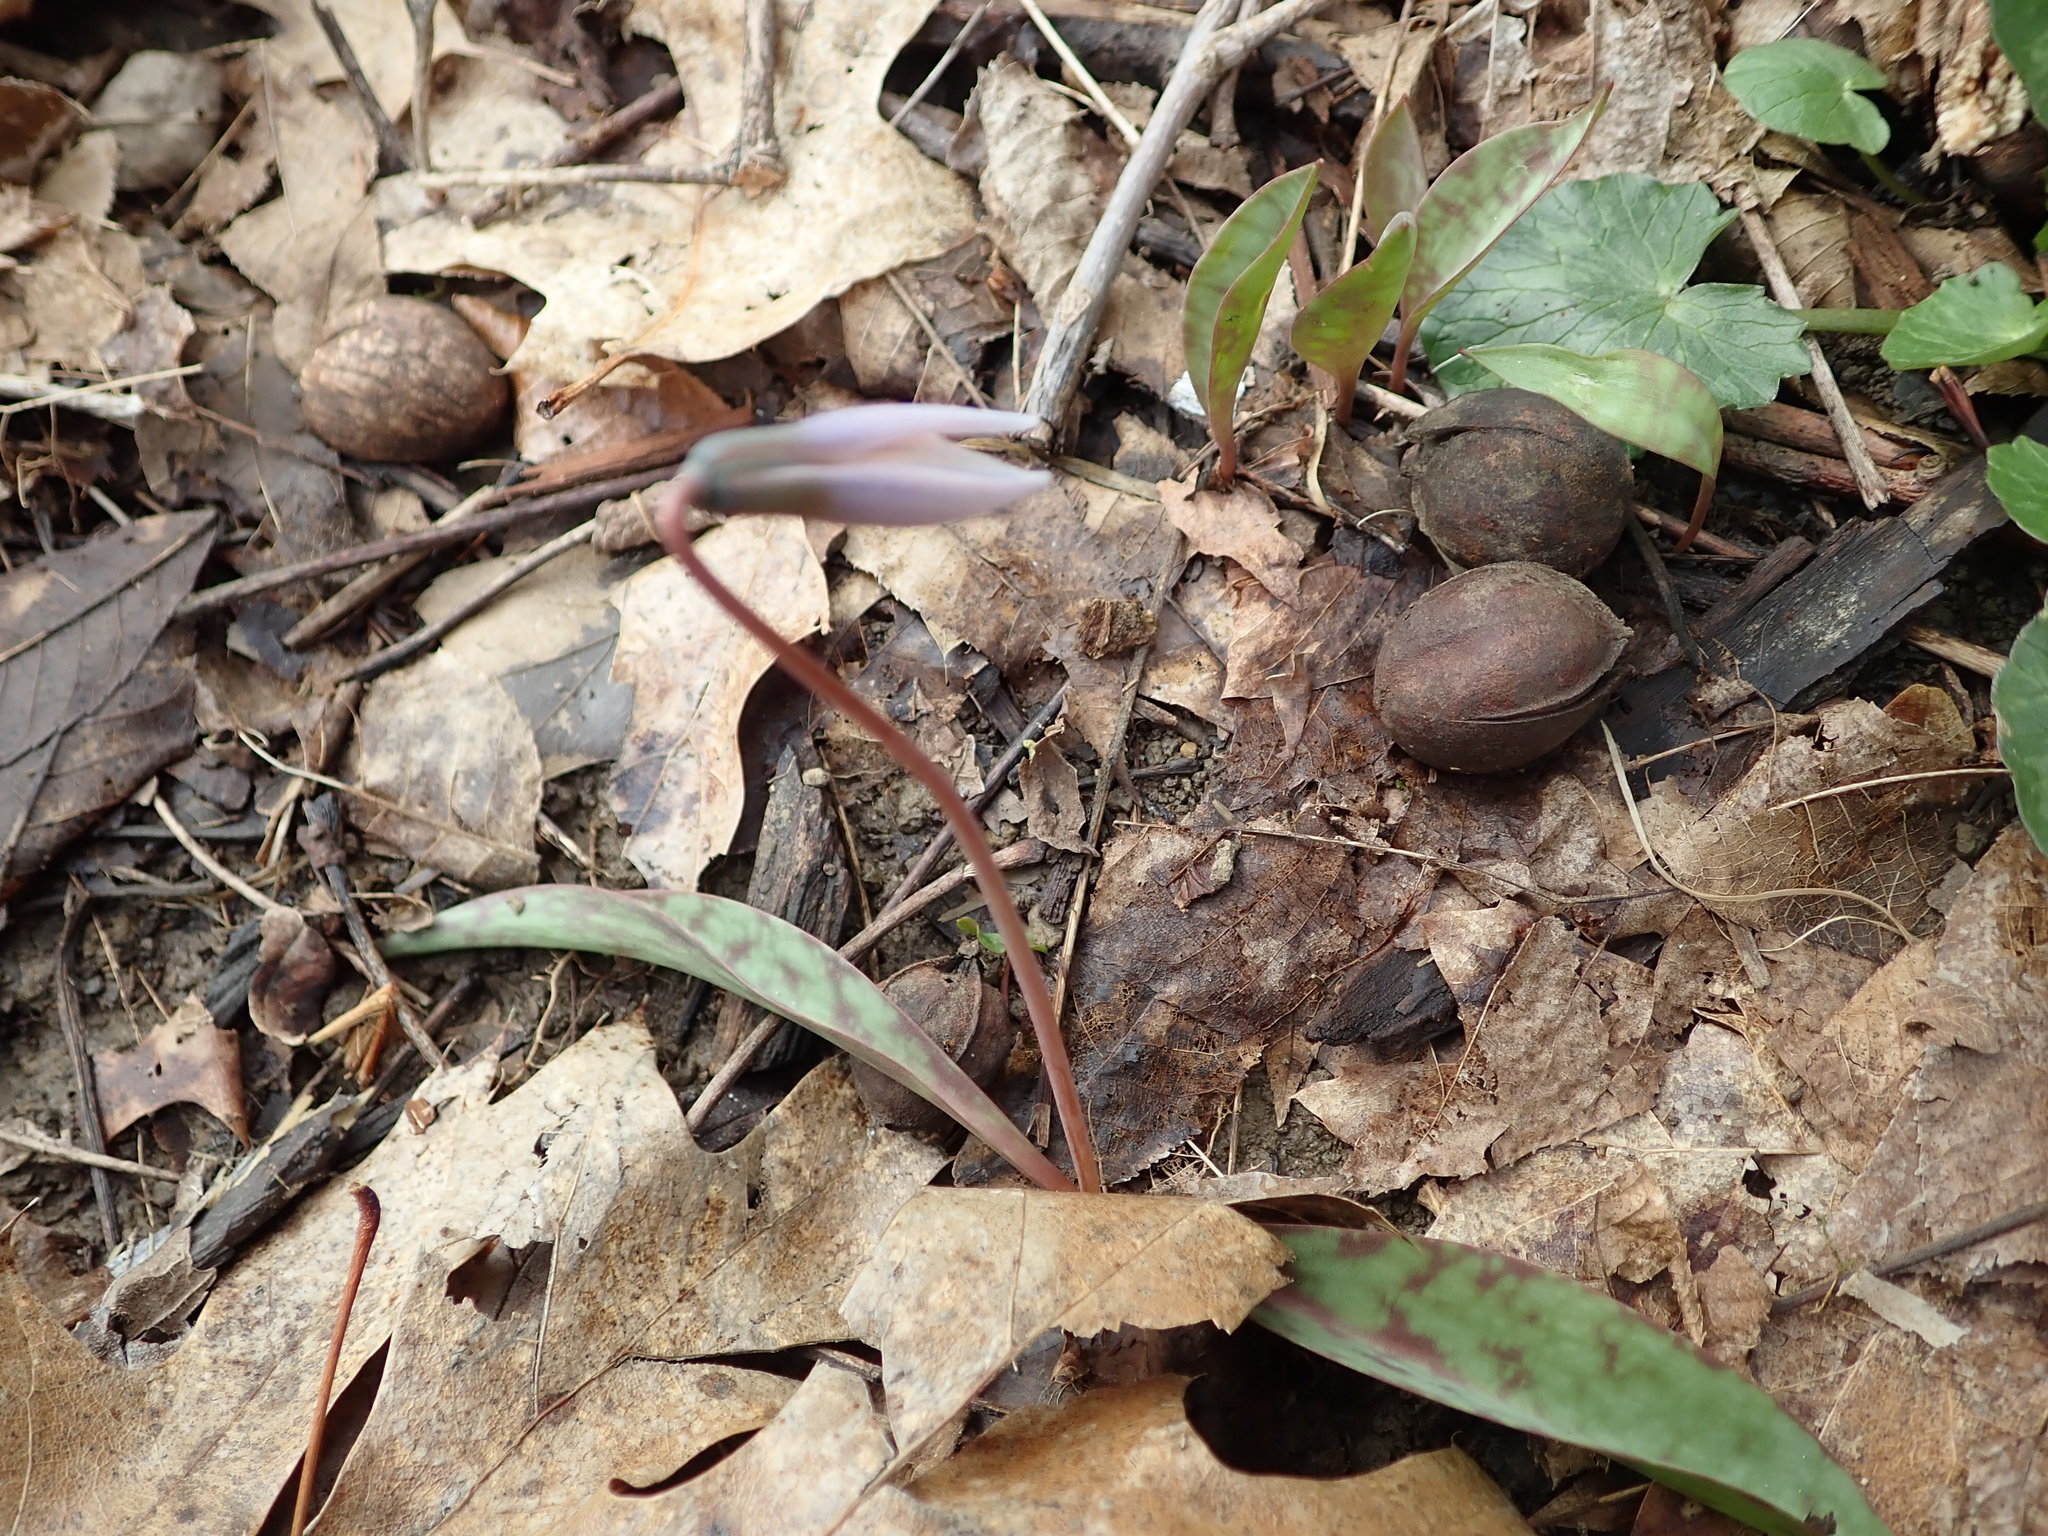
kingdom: Plantae
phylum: Tracheophyta
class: Liliopsida
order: Liliales
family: Liliaceae
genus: Erythronium
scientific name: Erythronium albidum
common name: White trout-lily
